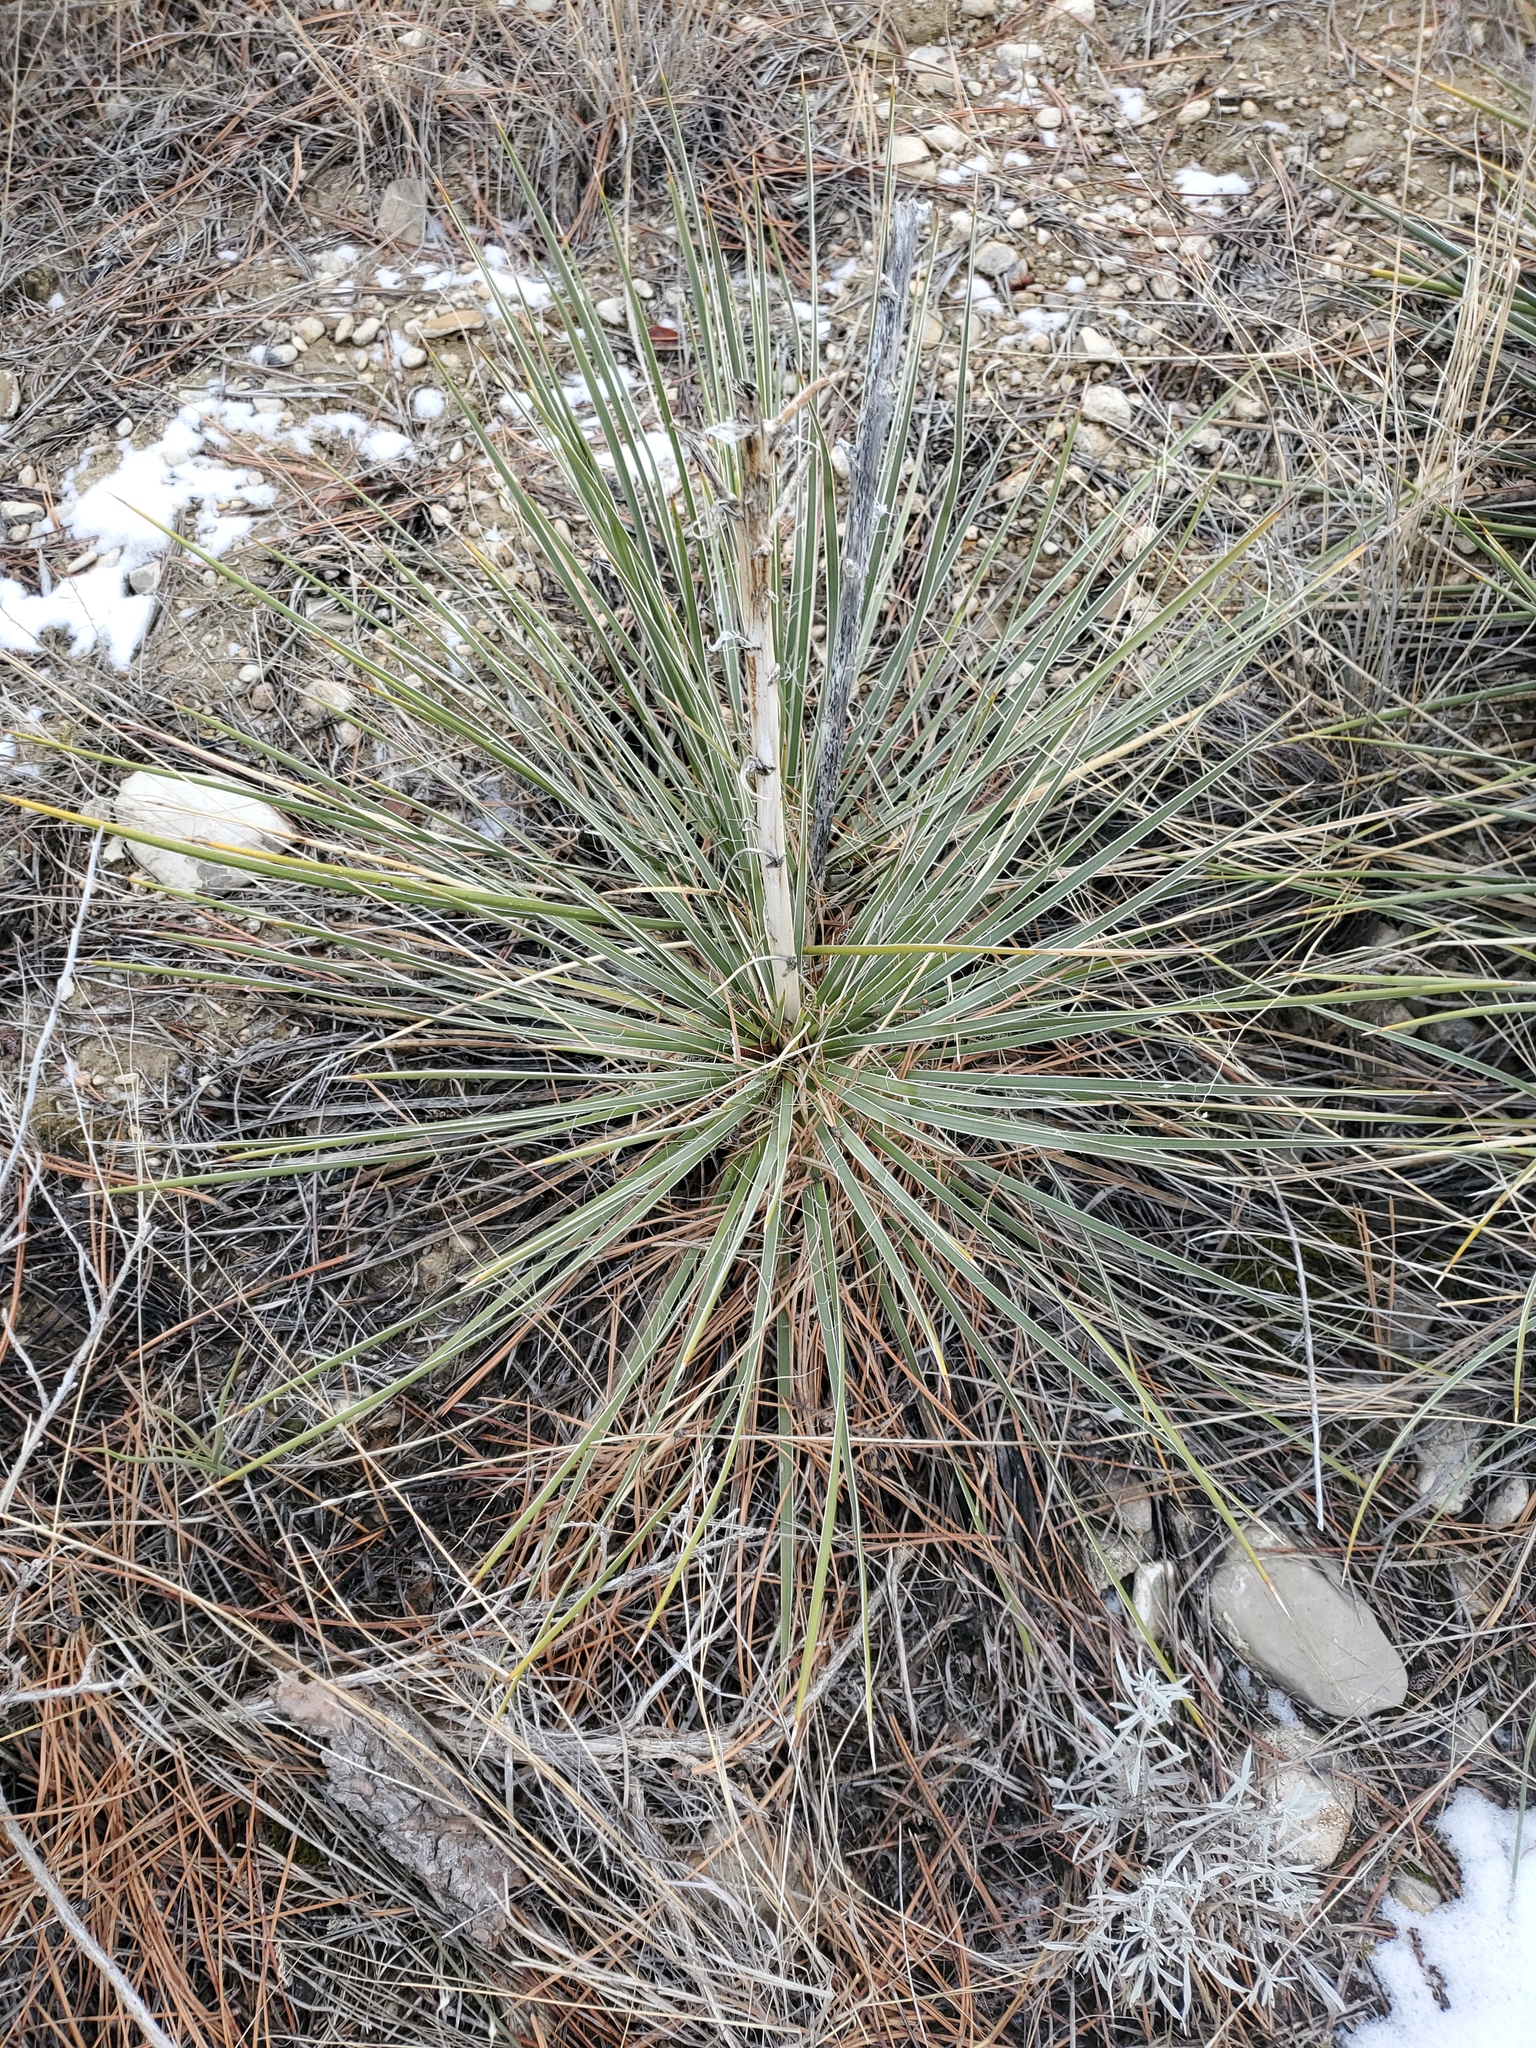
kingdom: Plantae
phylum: Tracheophyta
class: Liliopsida
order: Asparagales
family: Asparagaceae
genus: Yucca
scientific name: Yucca glauca
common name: Great plains yucca
